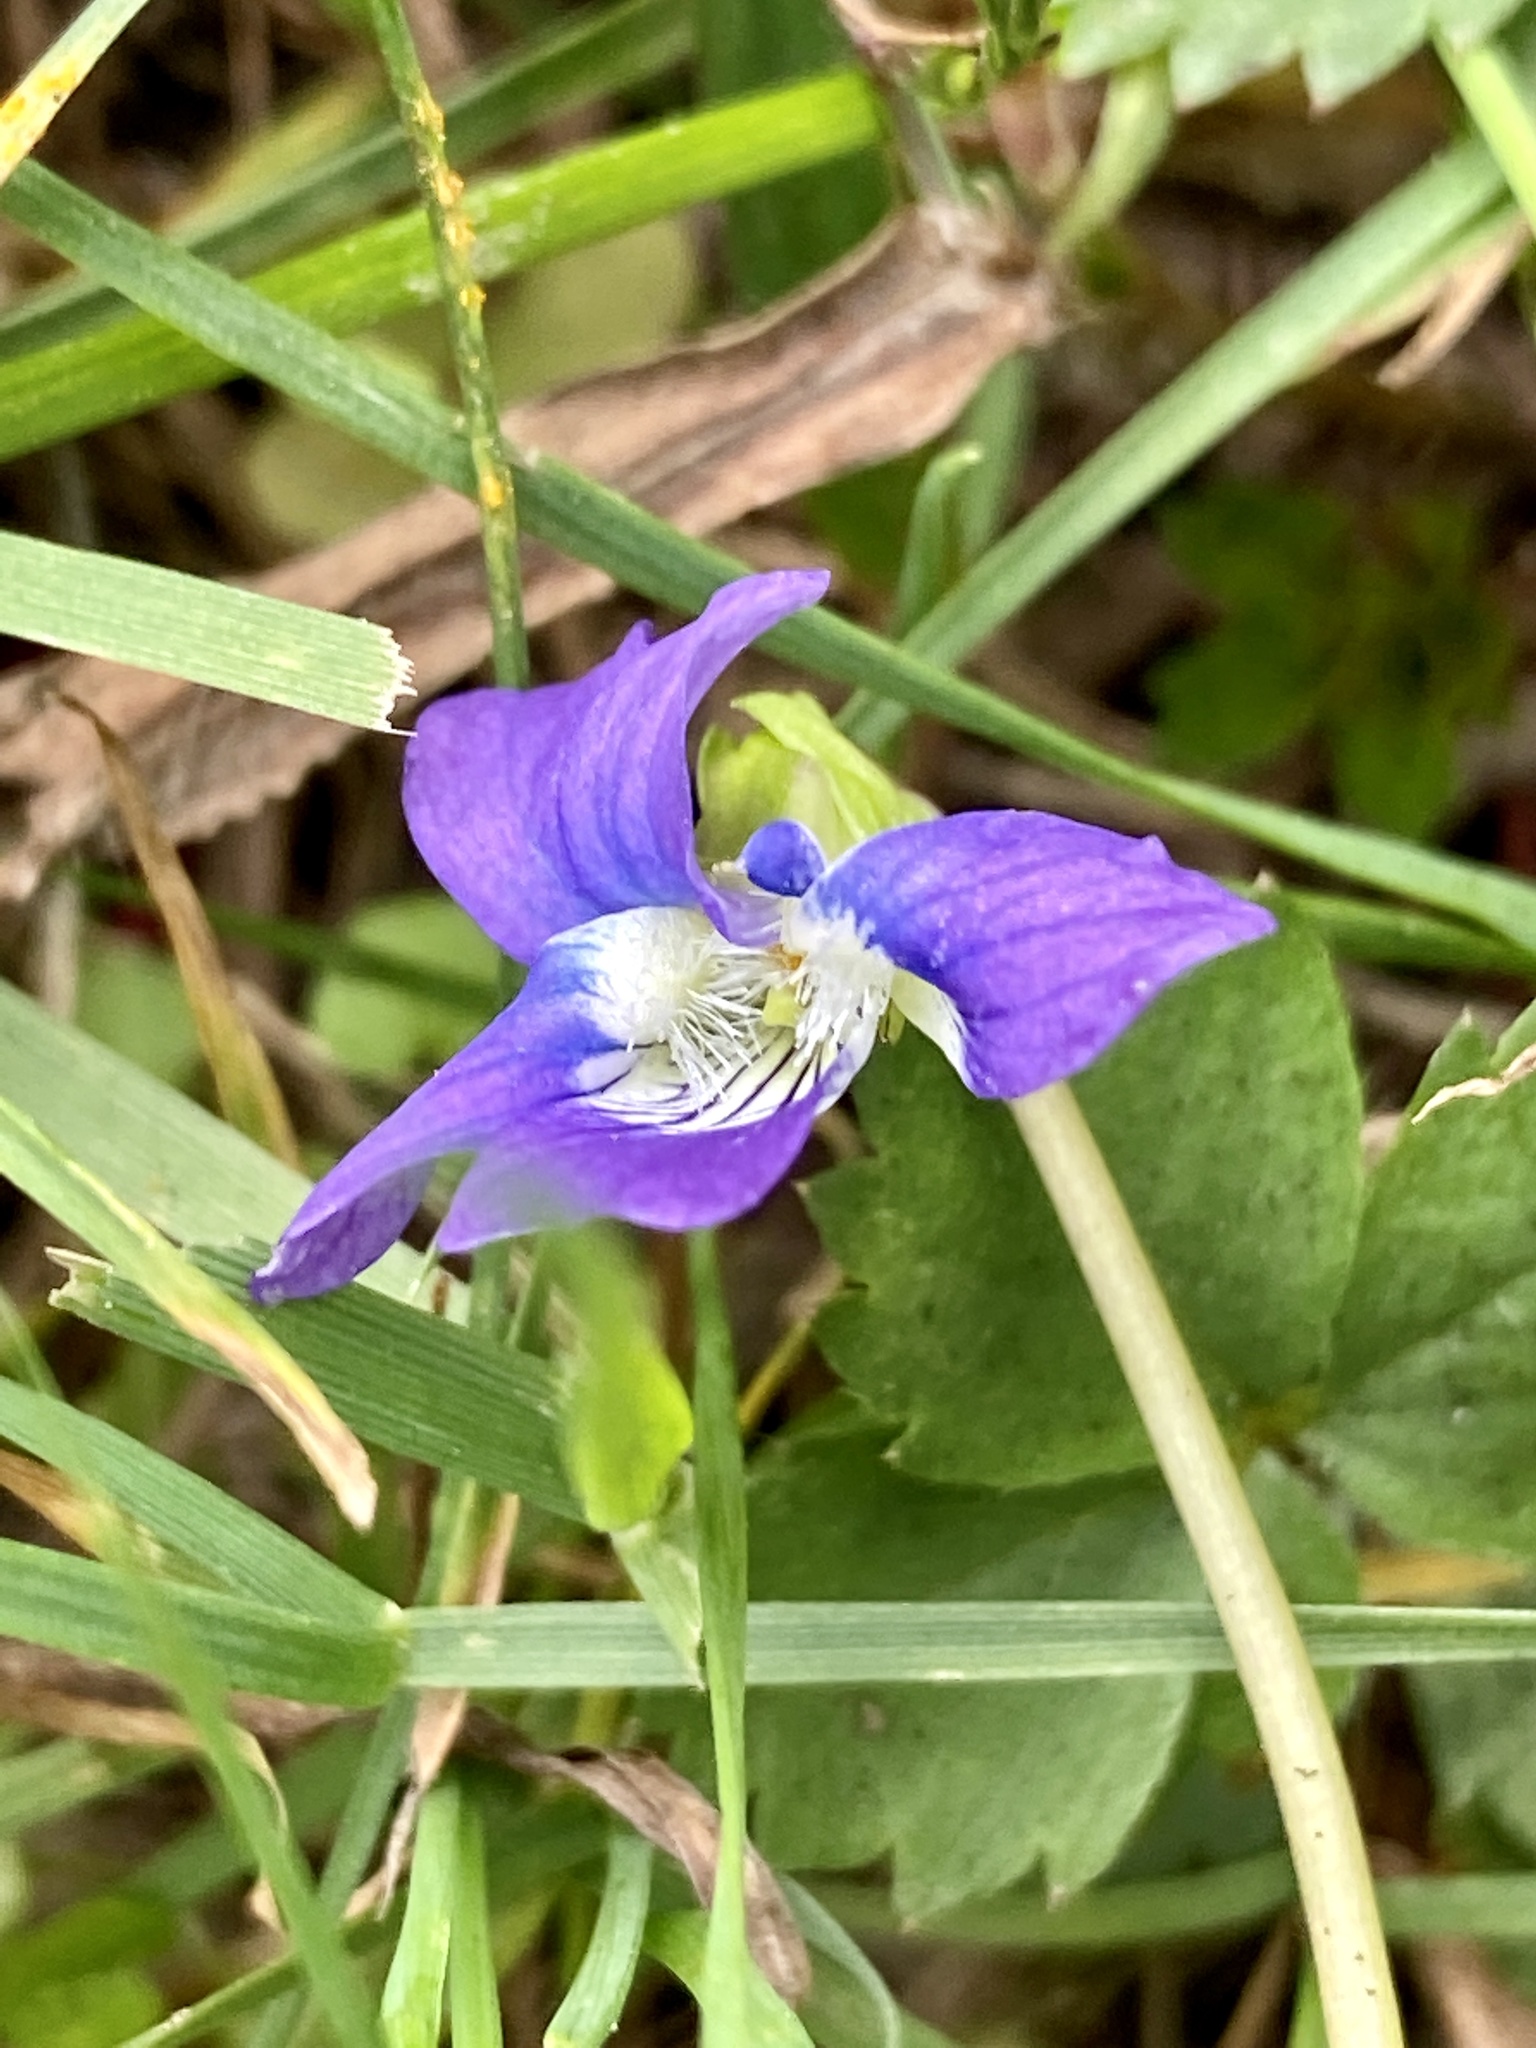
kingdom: Plantae
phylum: Tracheophyta
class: Magnoliopsida
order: Malpighiales
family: Violaceae
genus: Viola
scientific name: Viola sororia
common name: Dooryard violet
